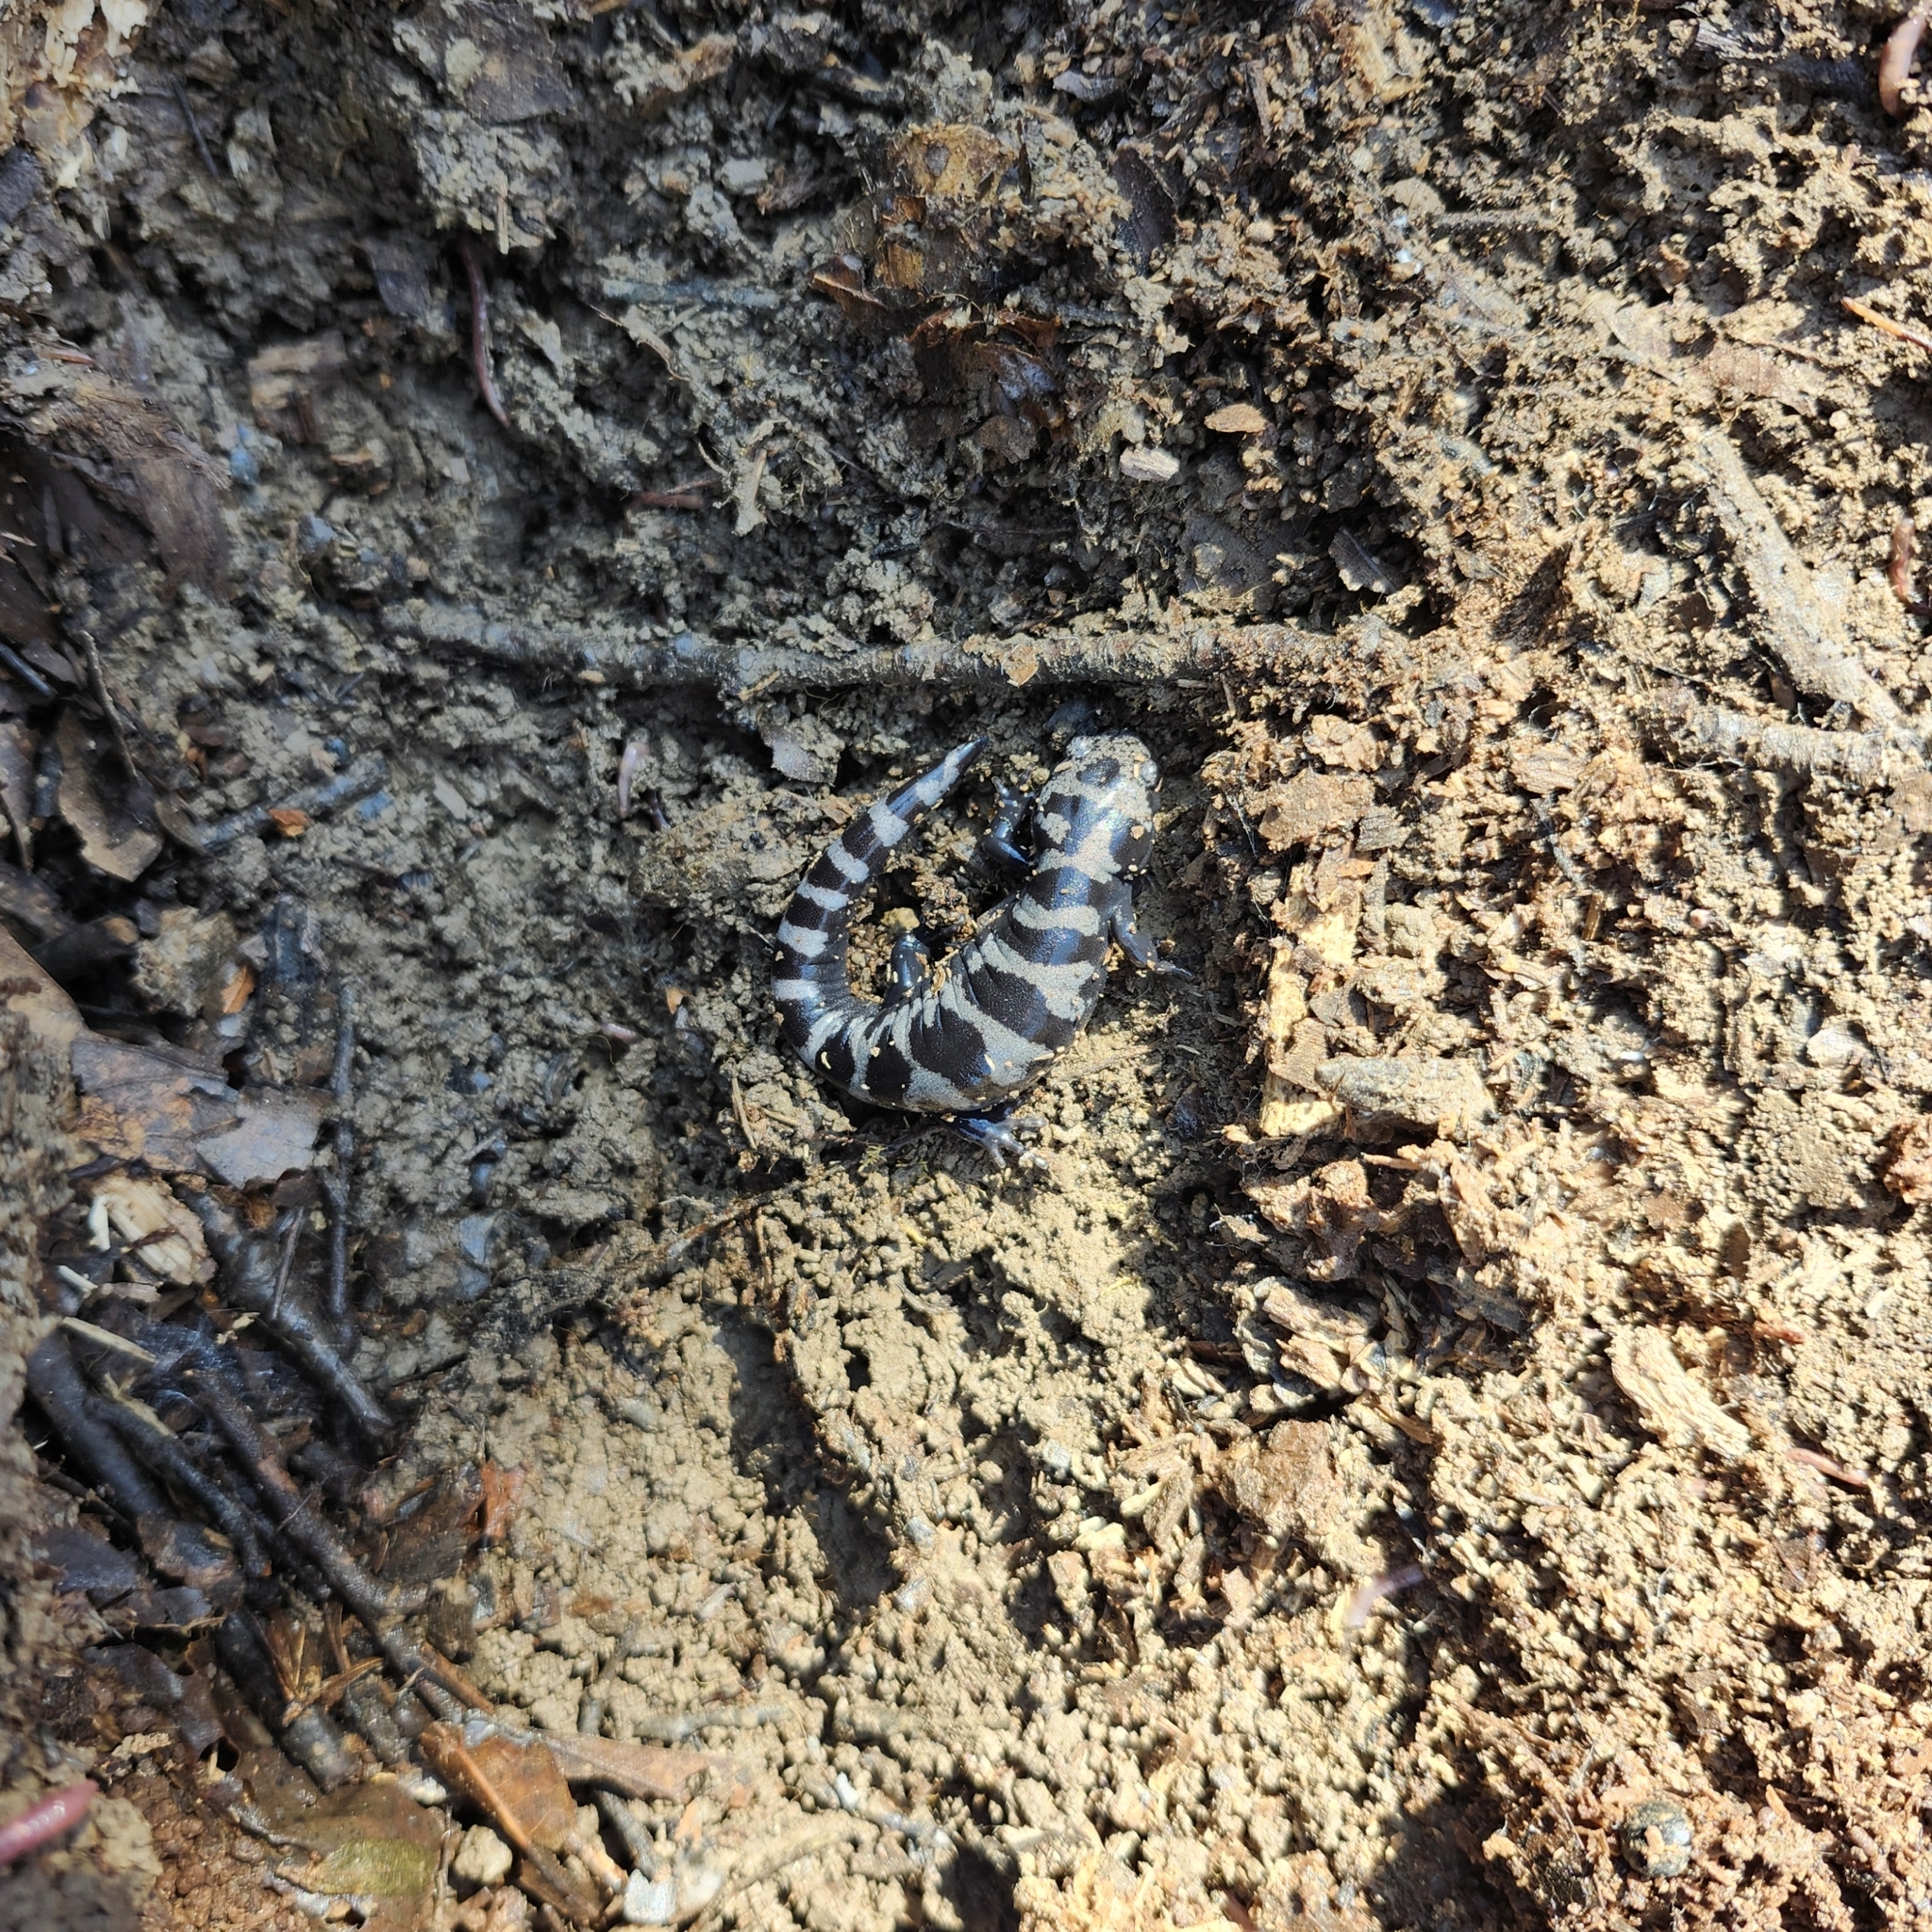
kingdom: Animalia
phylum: Chordata
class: Amphibia
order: Caudata
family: Ambystomatidae
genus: Ambystoma
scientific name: Ambystoma opacum
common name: Marbled salamander
